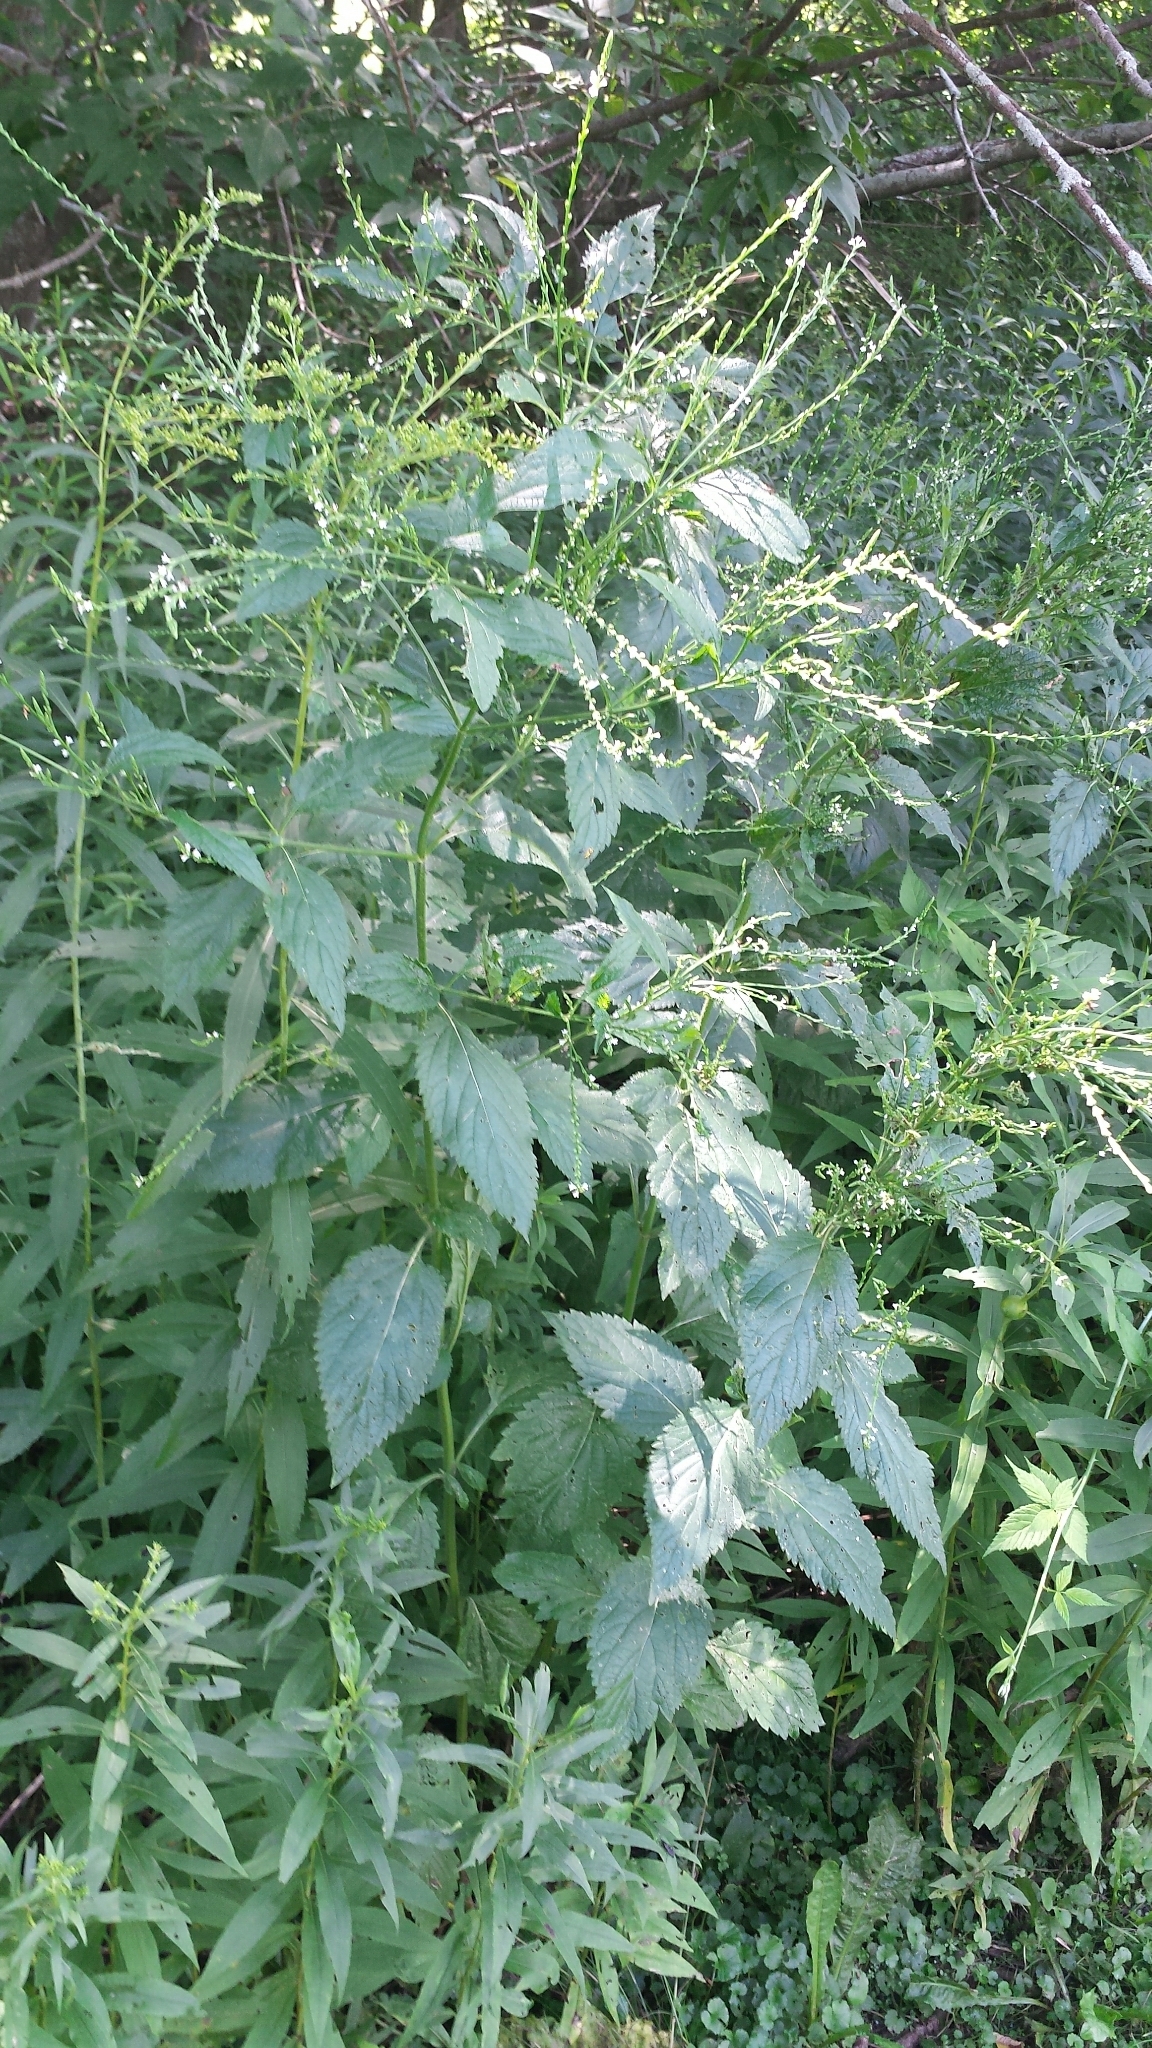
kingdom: Plantae
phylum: Tracheophyta
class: Magnoliopsida
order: Lamiales
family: Verbenaceae
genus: Verbena
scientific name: Verbena urticifolia
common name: Nettle-leaved vervain
